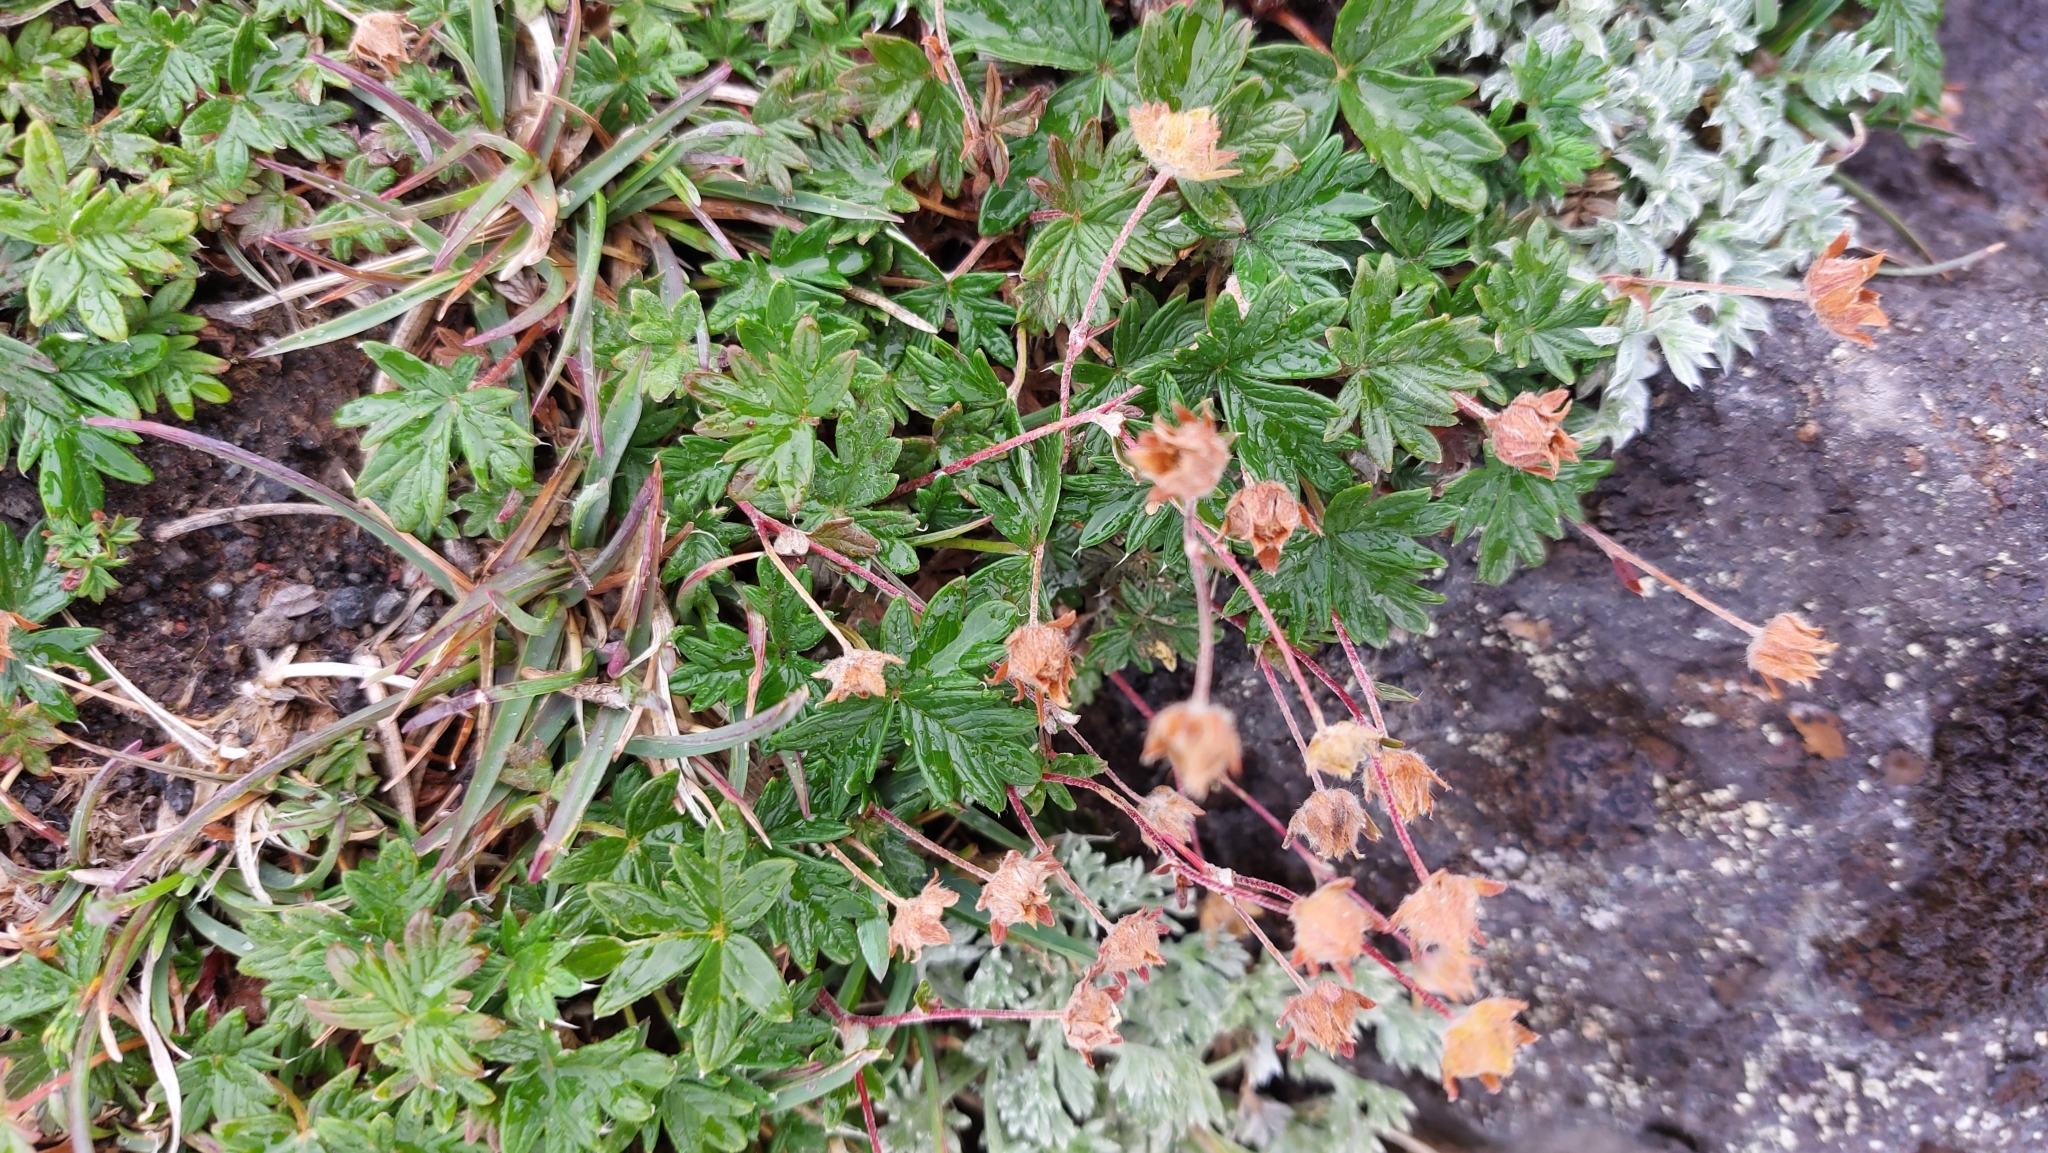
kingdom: Plantae
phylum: Tracheophyta
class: Magnoliopsida
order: Rosales
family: Rosaceae
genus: Potentilla
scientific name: Potentilla vulcanicola
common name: Kamtchatka cinquefoil
